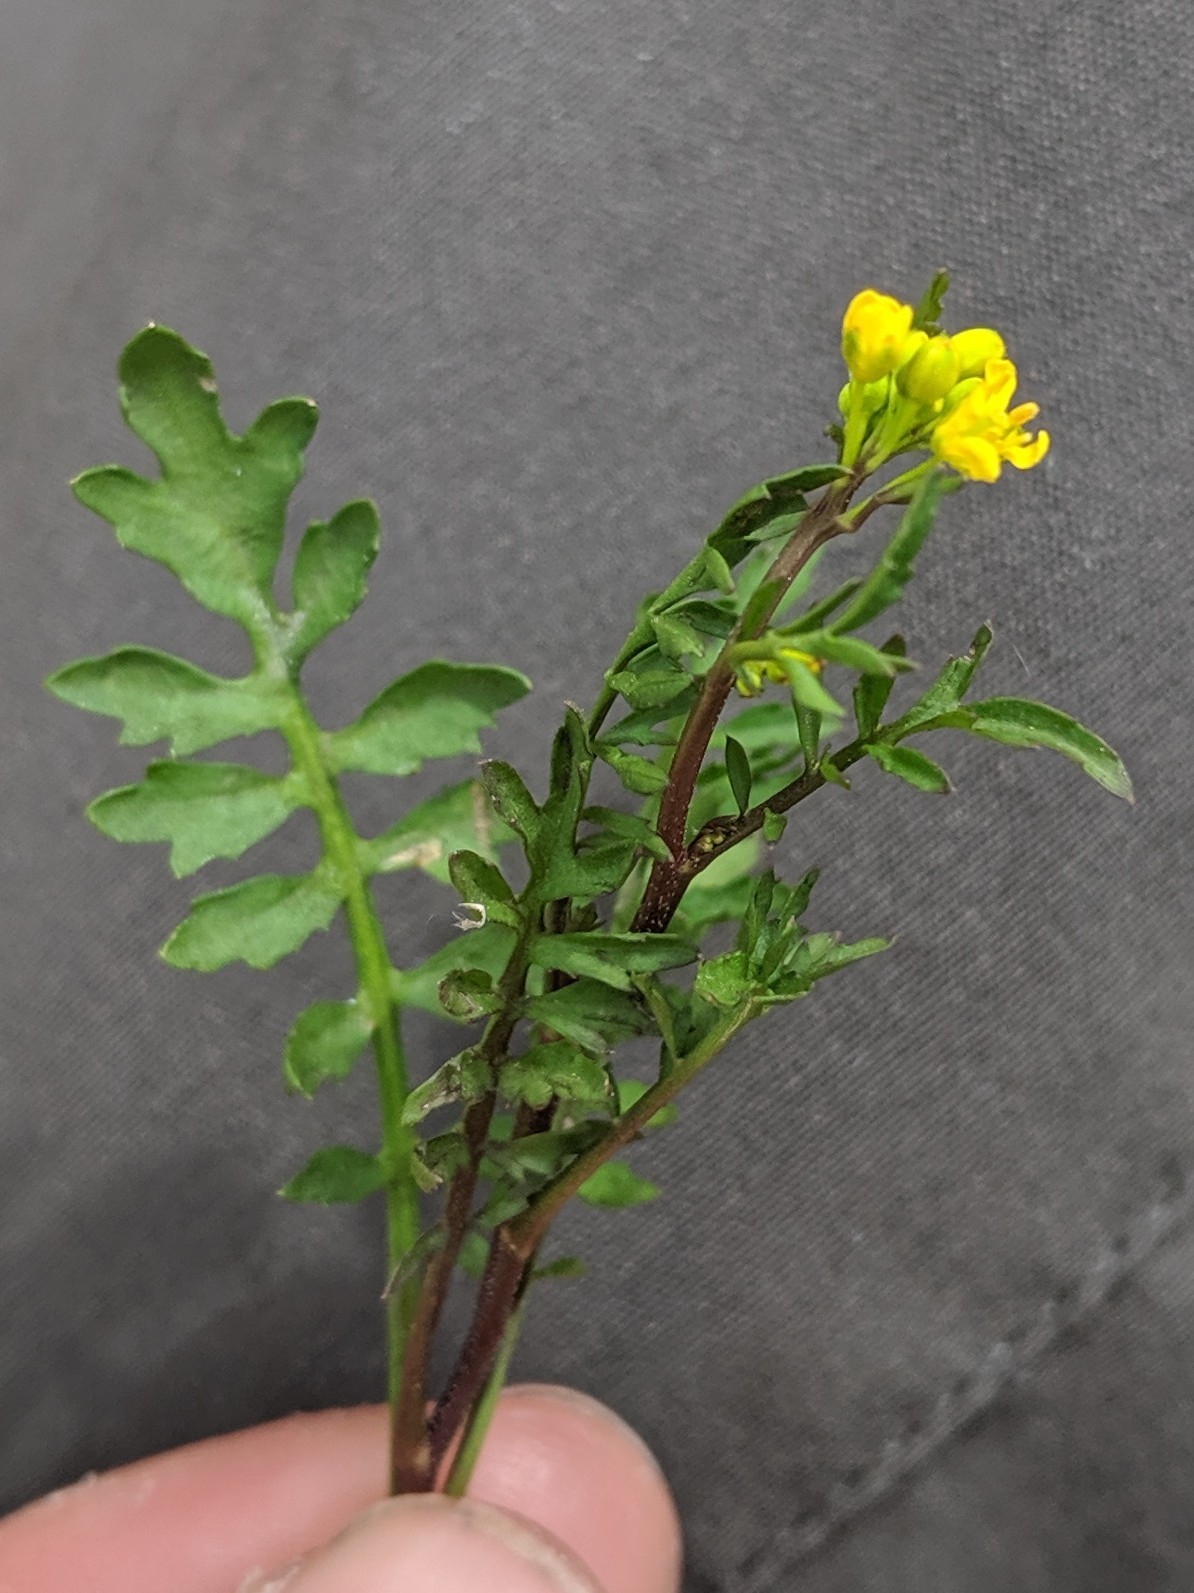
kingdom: Plantae
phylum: Tracheophyta
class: Magnoliopsida
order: Brassicales
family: Brassicaceae
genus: Rorippa
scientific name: Rorippa sylvestris
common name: Creeping yellowcress
